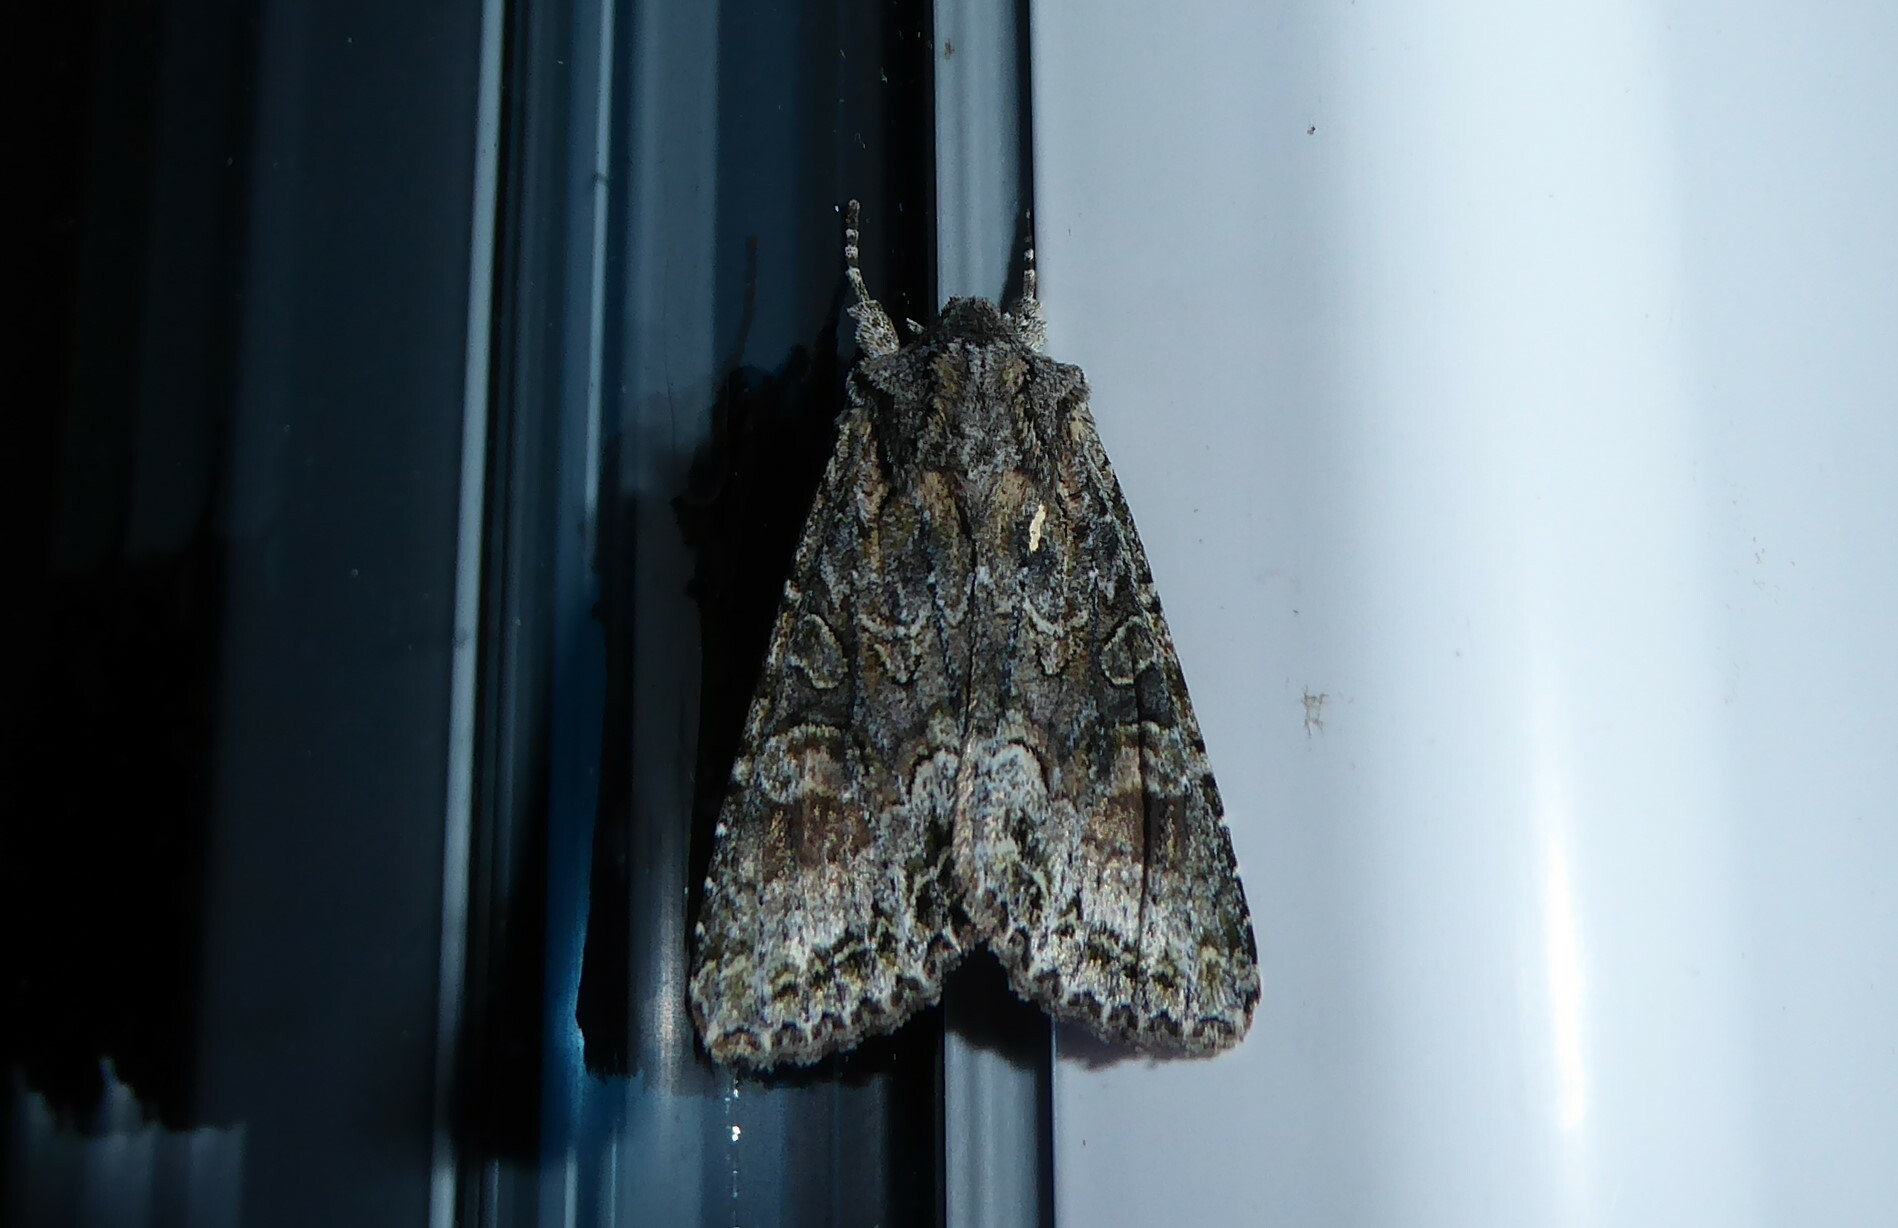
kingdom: Animalia
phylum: Arthropoda
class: Insecta
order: Lepidoptera
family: Noctuidae
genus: Ichneutica
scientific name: Ichneutica mutans
